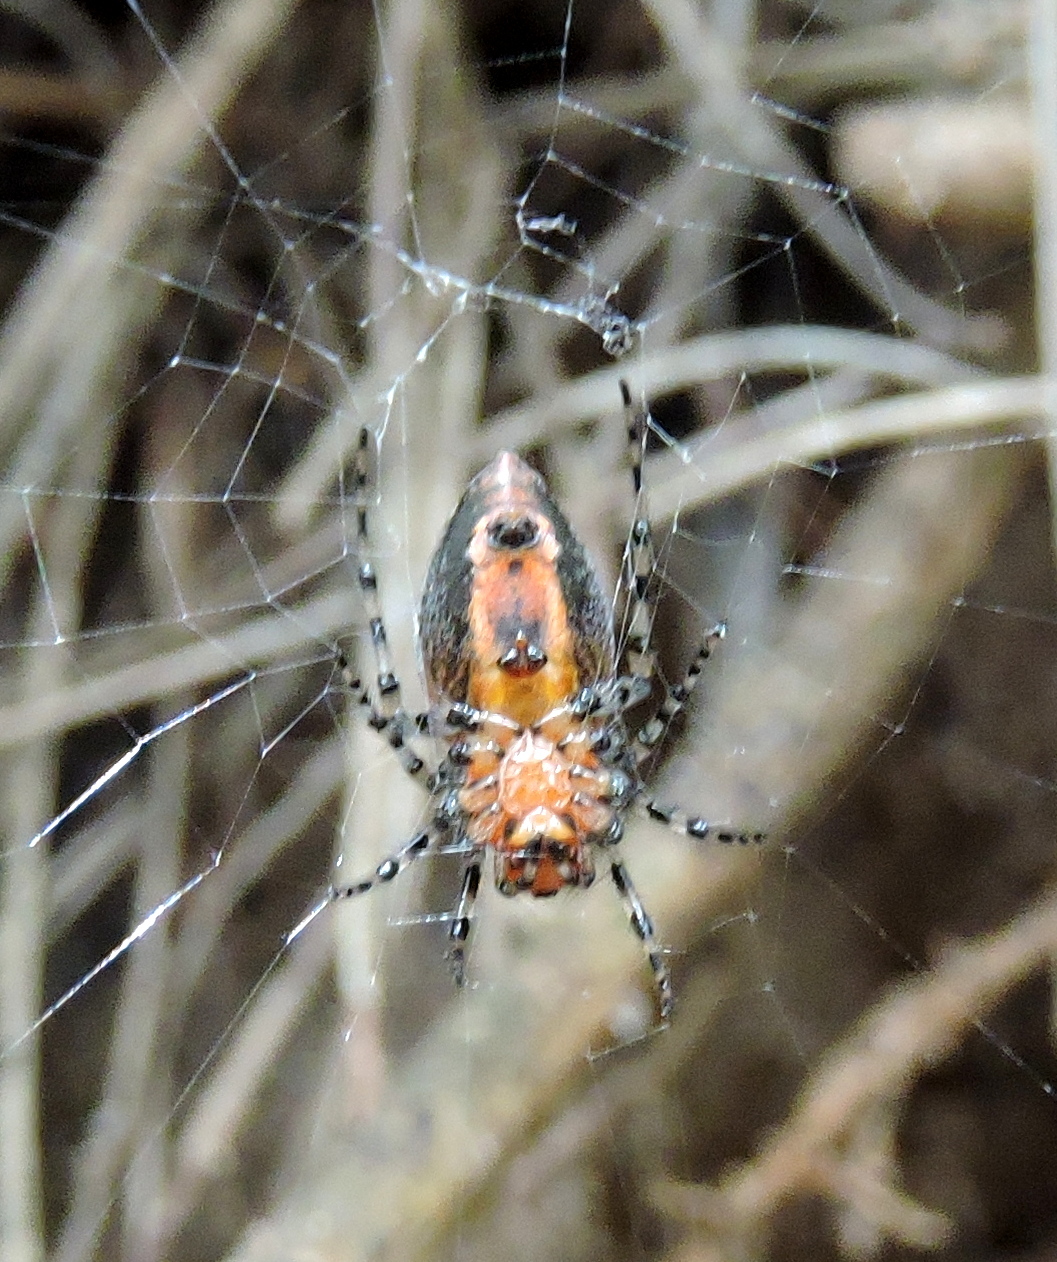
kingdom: Animalia
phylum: Arthropoda
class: Arachnida
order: Araneae
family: Araneidae
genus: Alpaida
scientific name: Alpaida gallardoi
